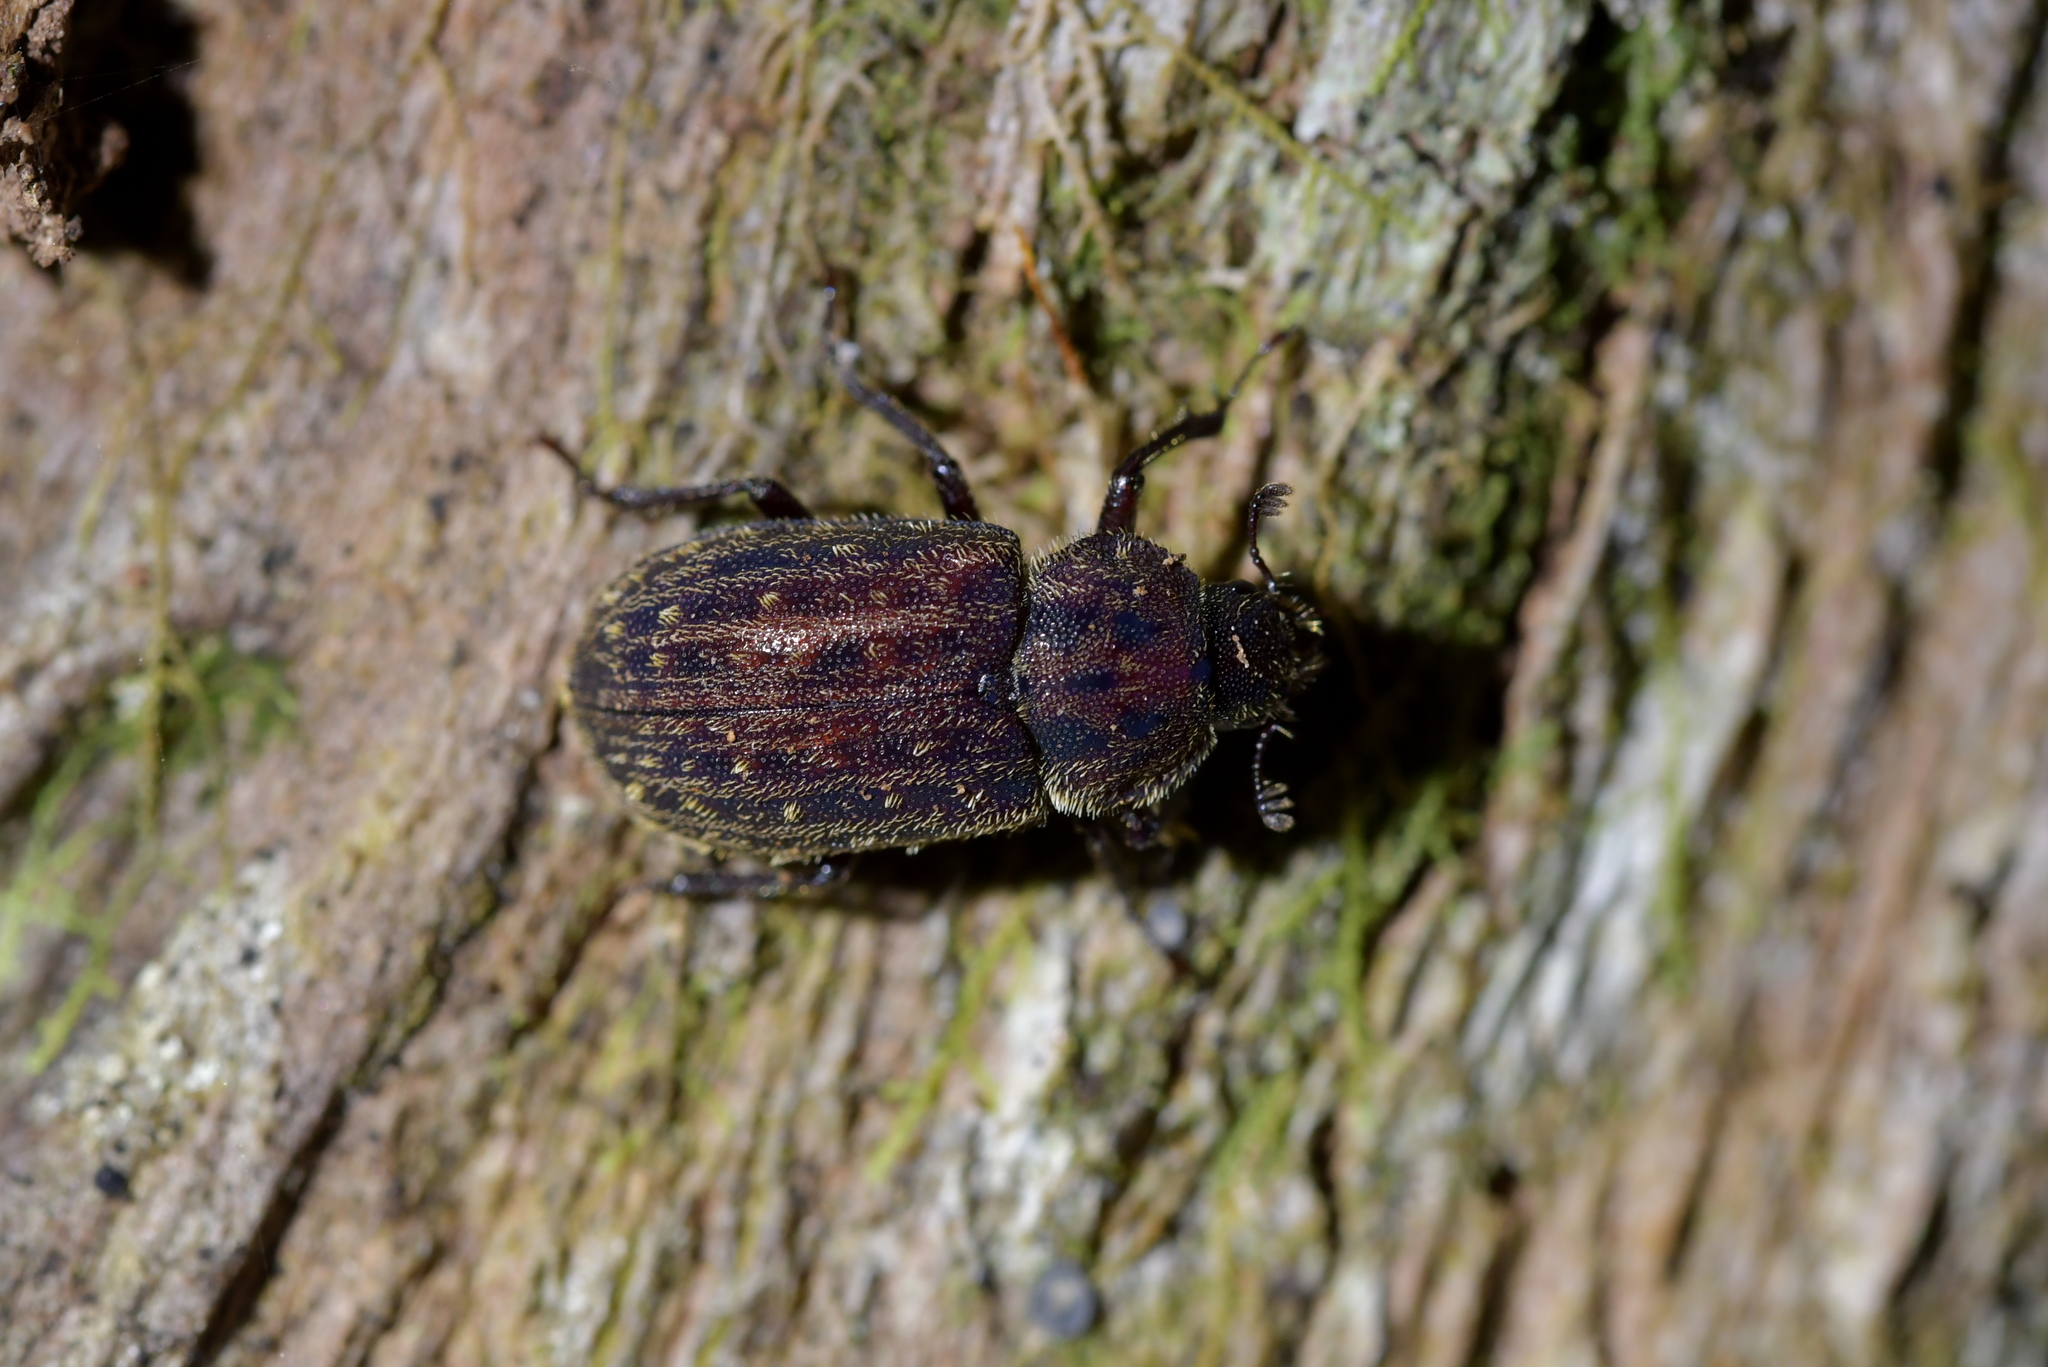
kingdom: Animalia
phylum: Arthropoda
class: Insecta
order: Coleoptera
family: Lucanidae
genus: Mitophyllus
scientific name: Mitophyllus alboguttatus
